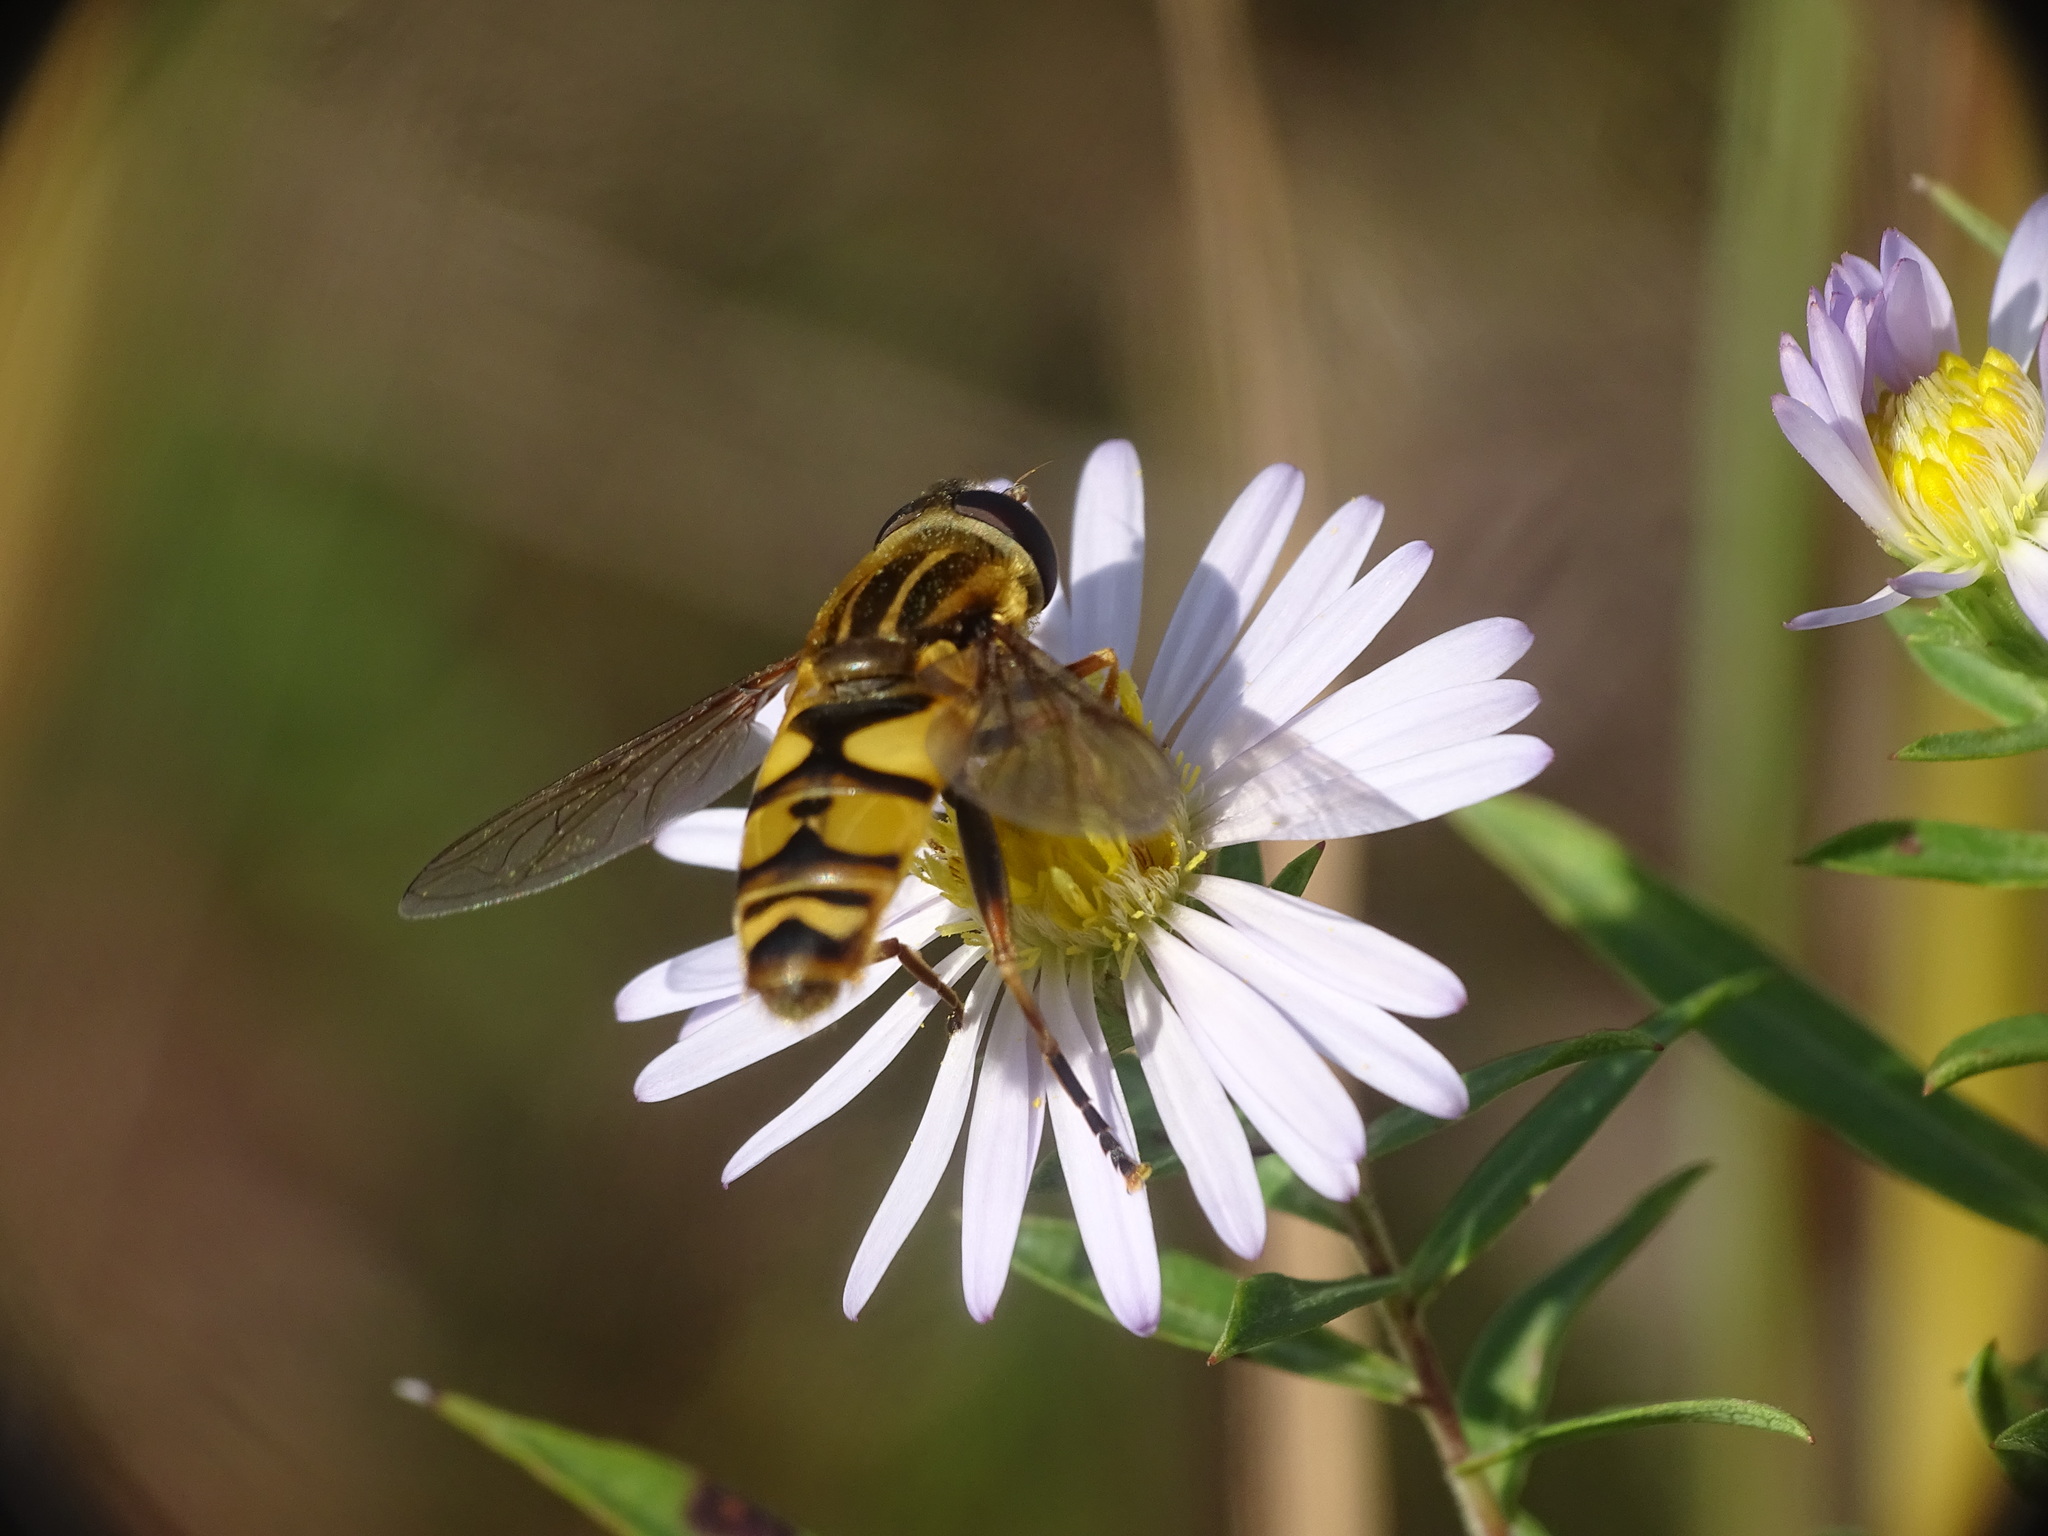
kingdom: Animalia
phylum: Arthropoda
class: Insecta
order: Diptera
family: Syrphidae
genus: Helophilus
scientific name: Helophilus fasciatus
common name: Narrow-headed marsh fly
